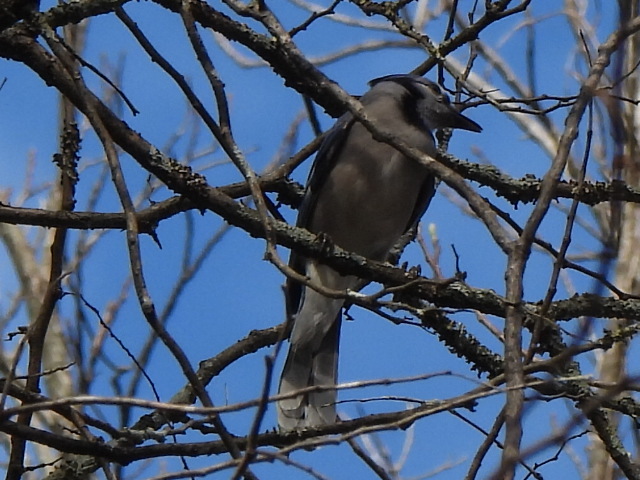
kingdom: Animalia
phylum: Chordata
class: Aves
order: Passeriformes
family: Corvidae
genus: Cyanocitta
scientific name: Cyanocitta cristata
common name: Blue jay
